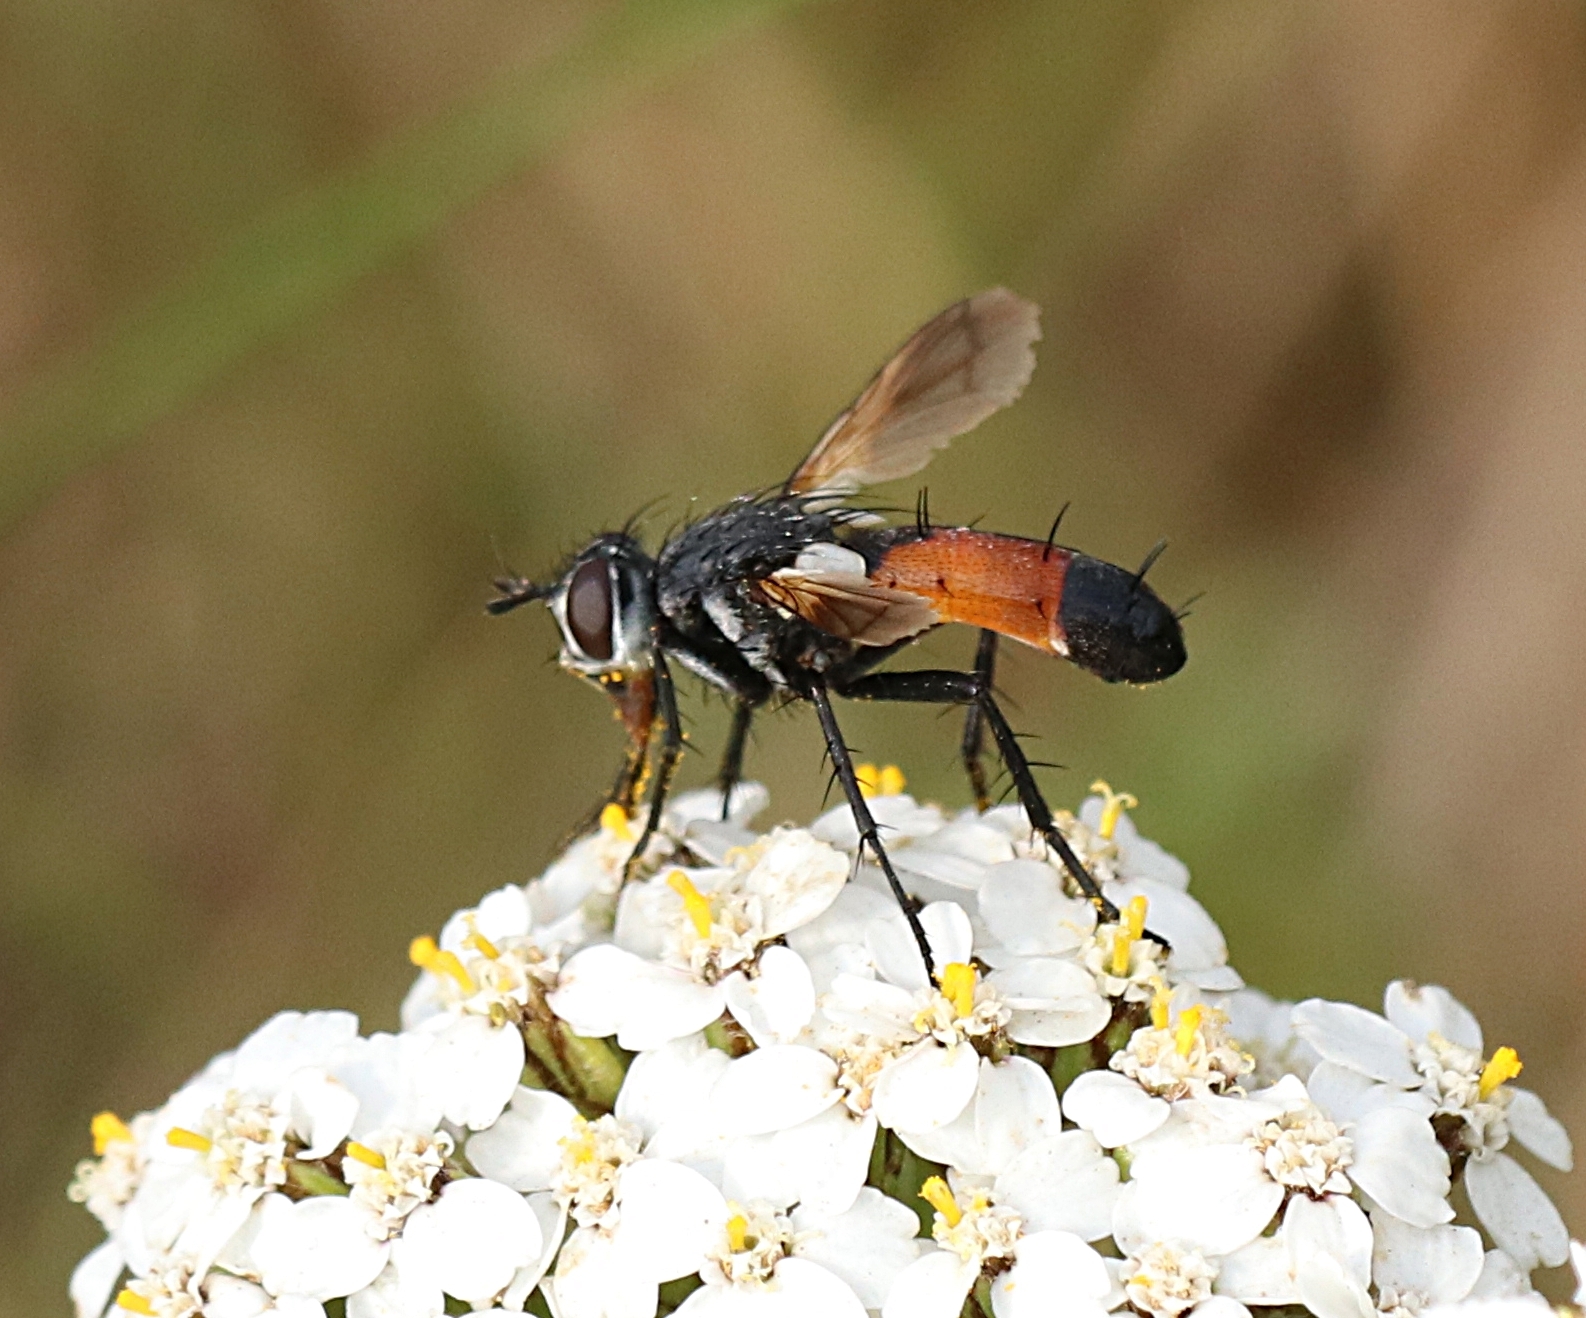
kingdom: Animalia
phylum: Arthropoda
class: Insecta
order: Diptera
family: Tachinidae
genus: Cylindromyia
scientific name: Cylindromyia brassicaria
